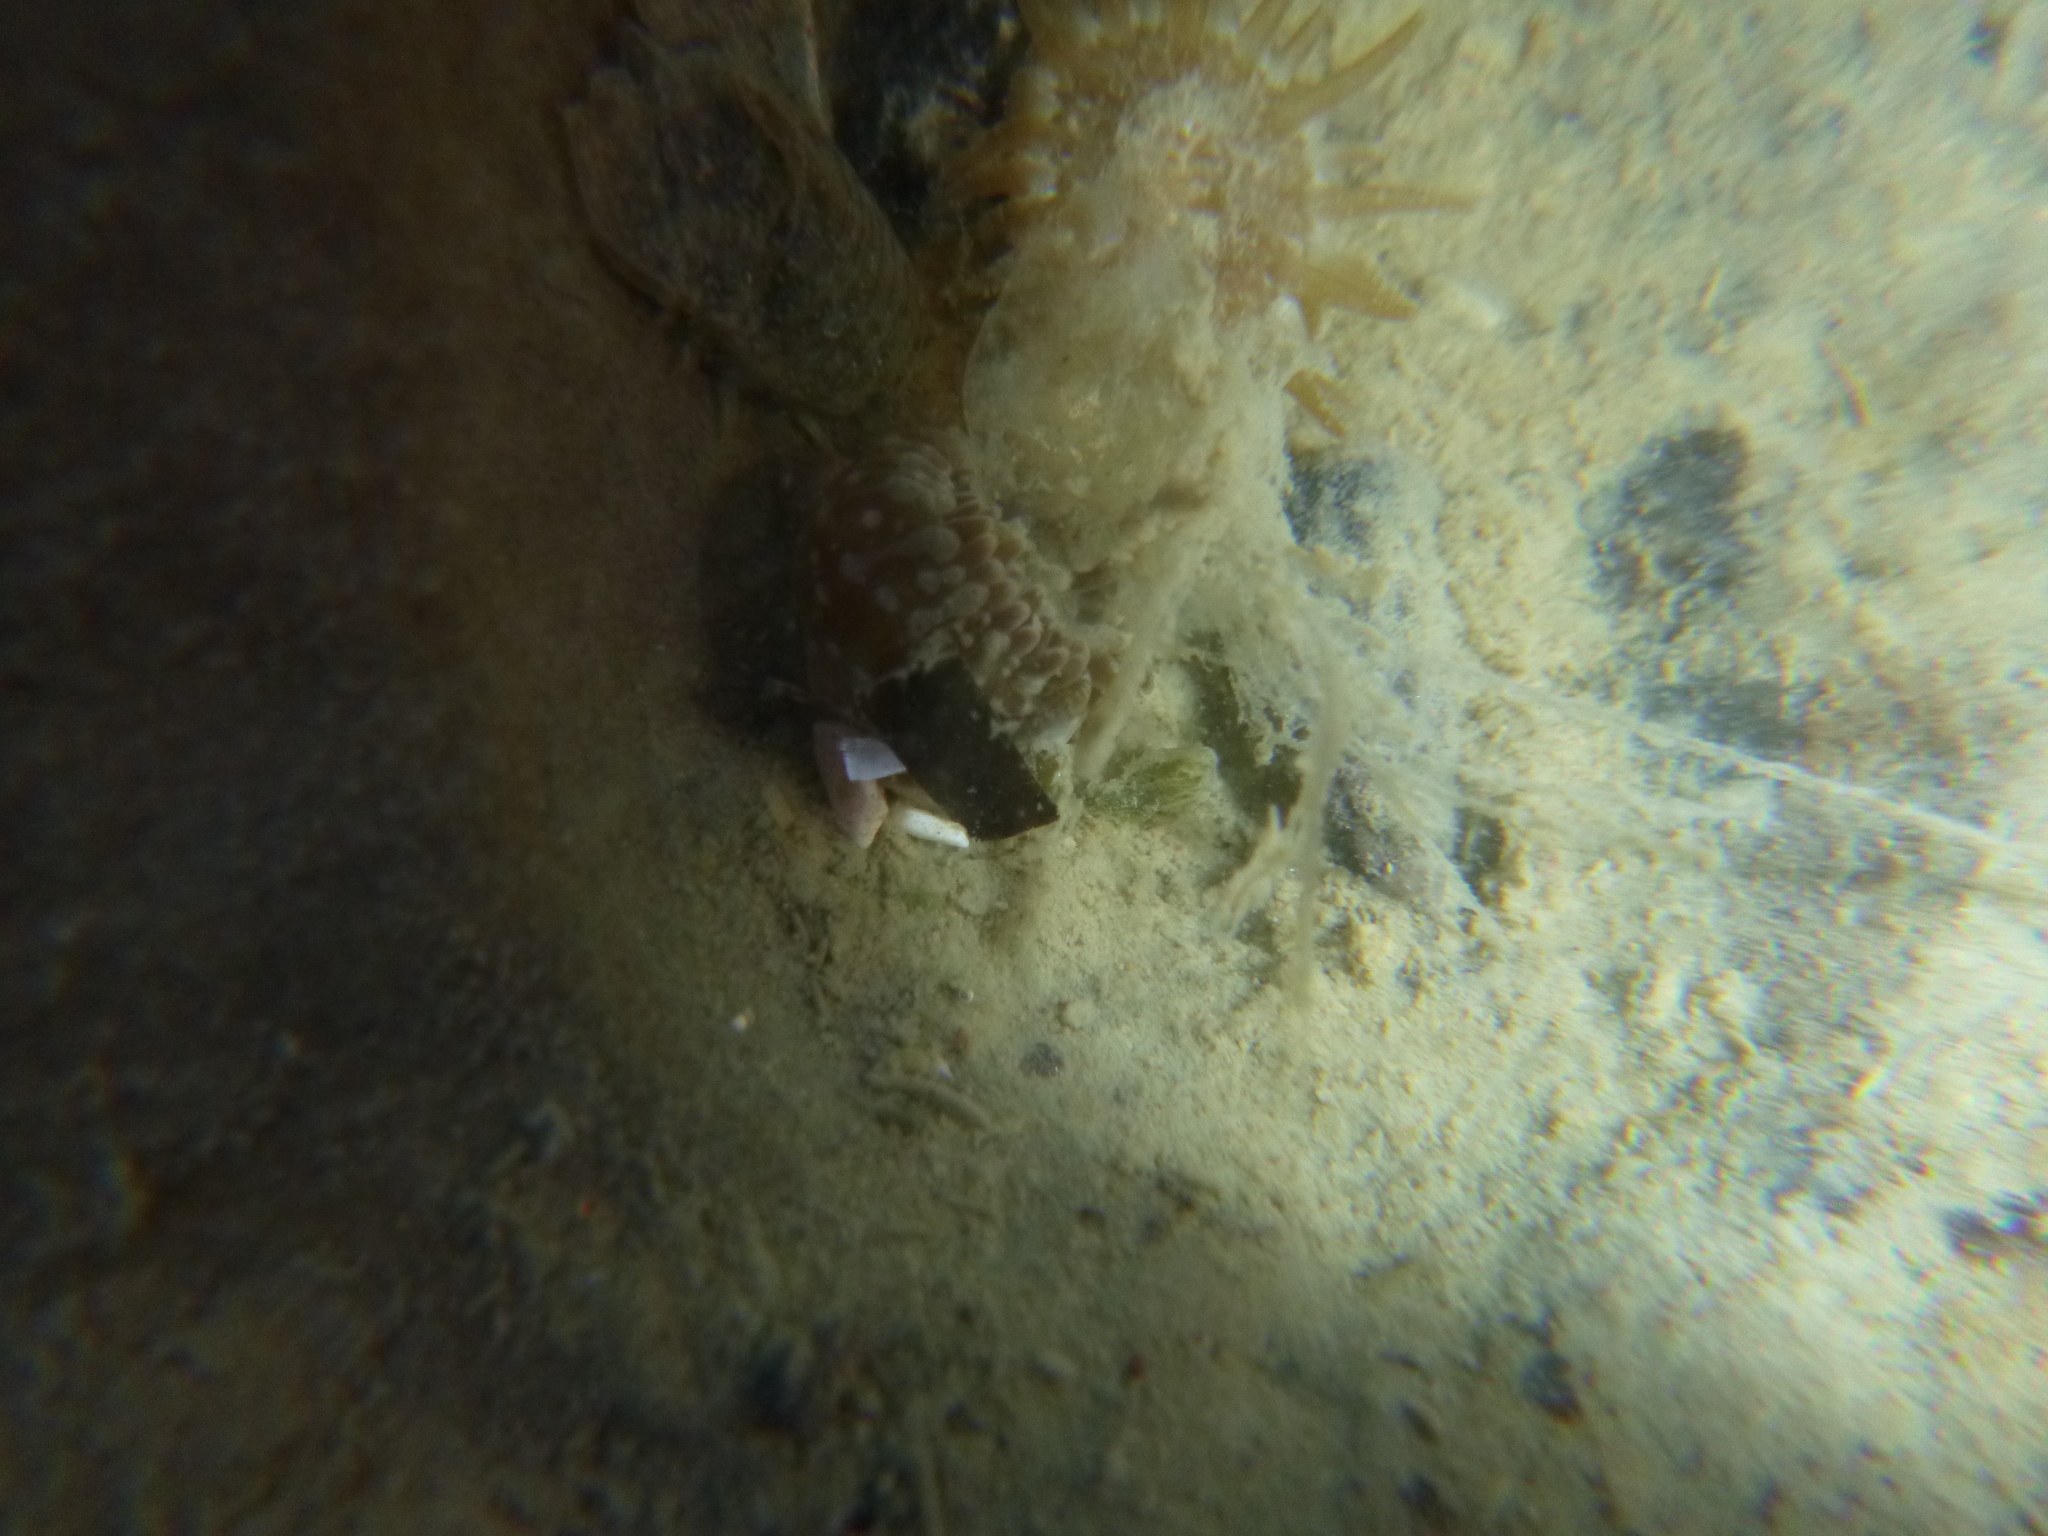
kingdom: Animalia
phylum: Arthropoda
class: Malacostraca
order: Decapoda
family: Palaemonidae
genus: Palaemon
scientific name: Palaemon affinis
